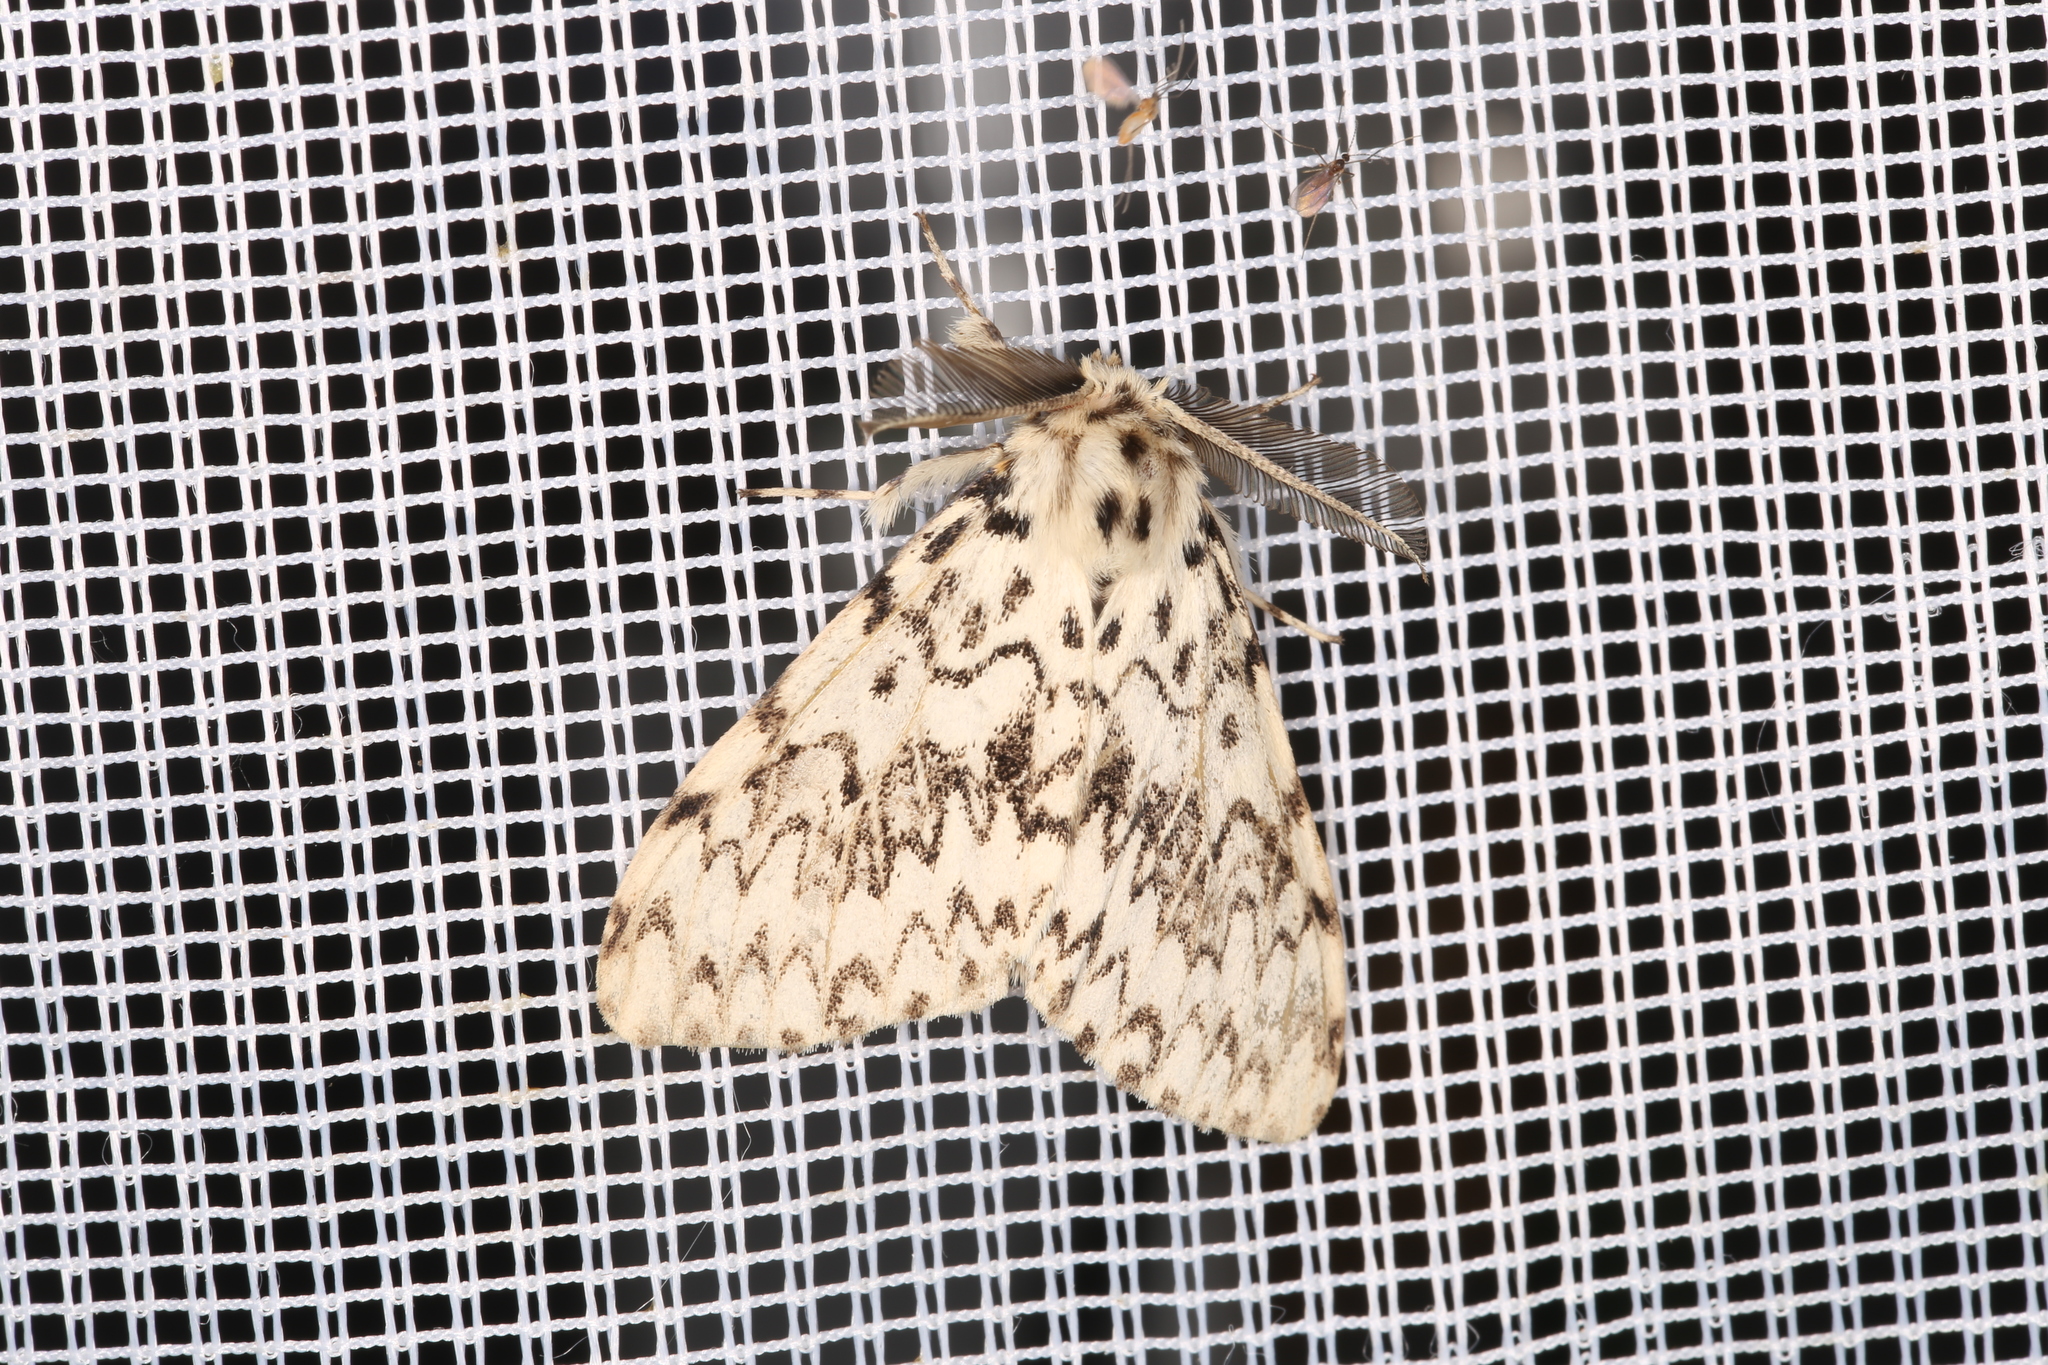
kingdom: Animalia
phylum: Arthropoda
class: Insecta
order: Lepidoptera
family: Erebidae
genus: Lymantria
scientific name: Lymantria monacha
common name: Black arches
